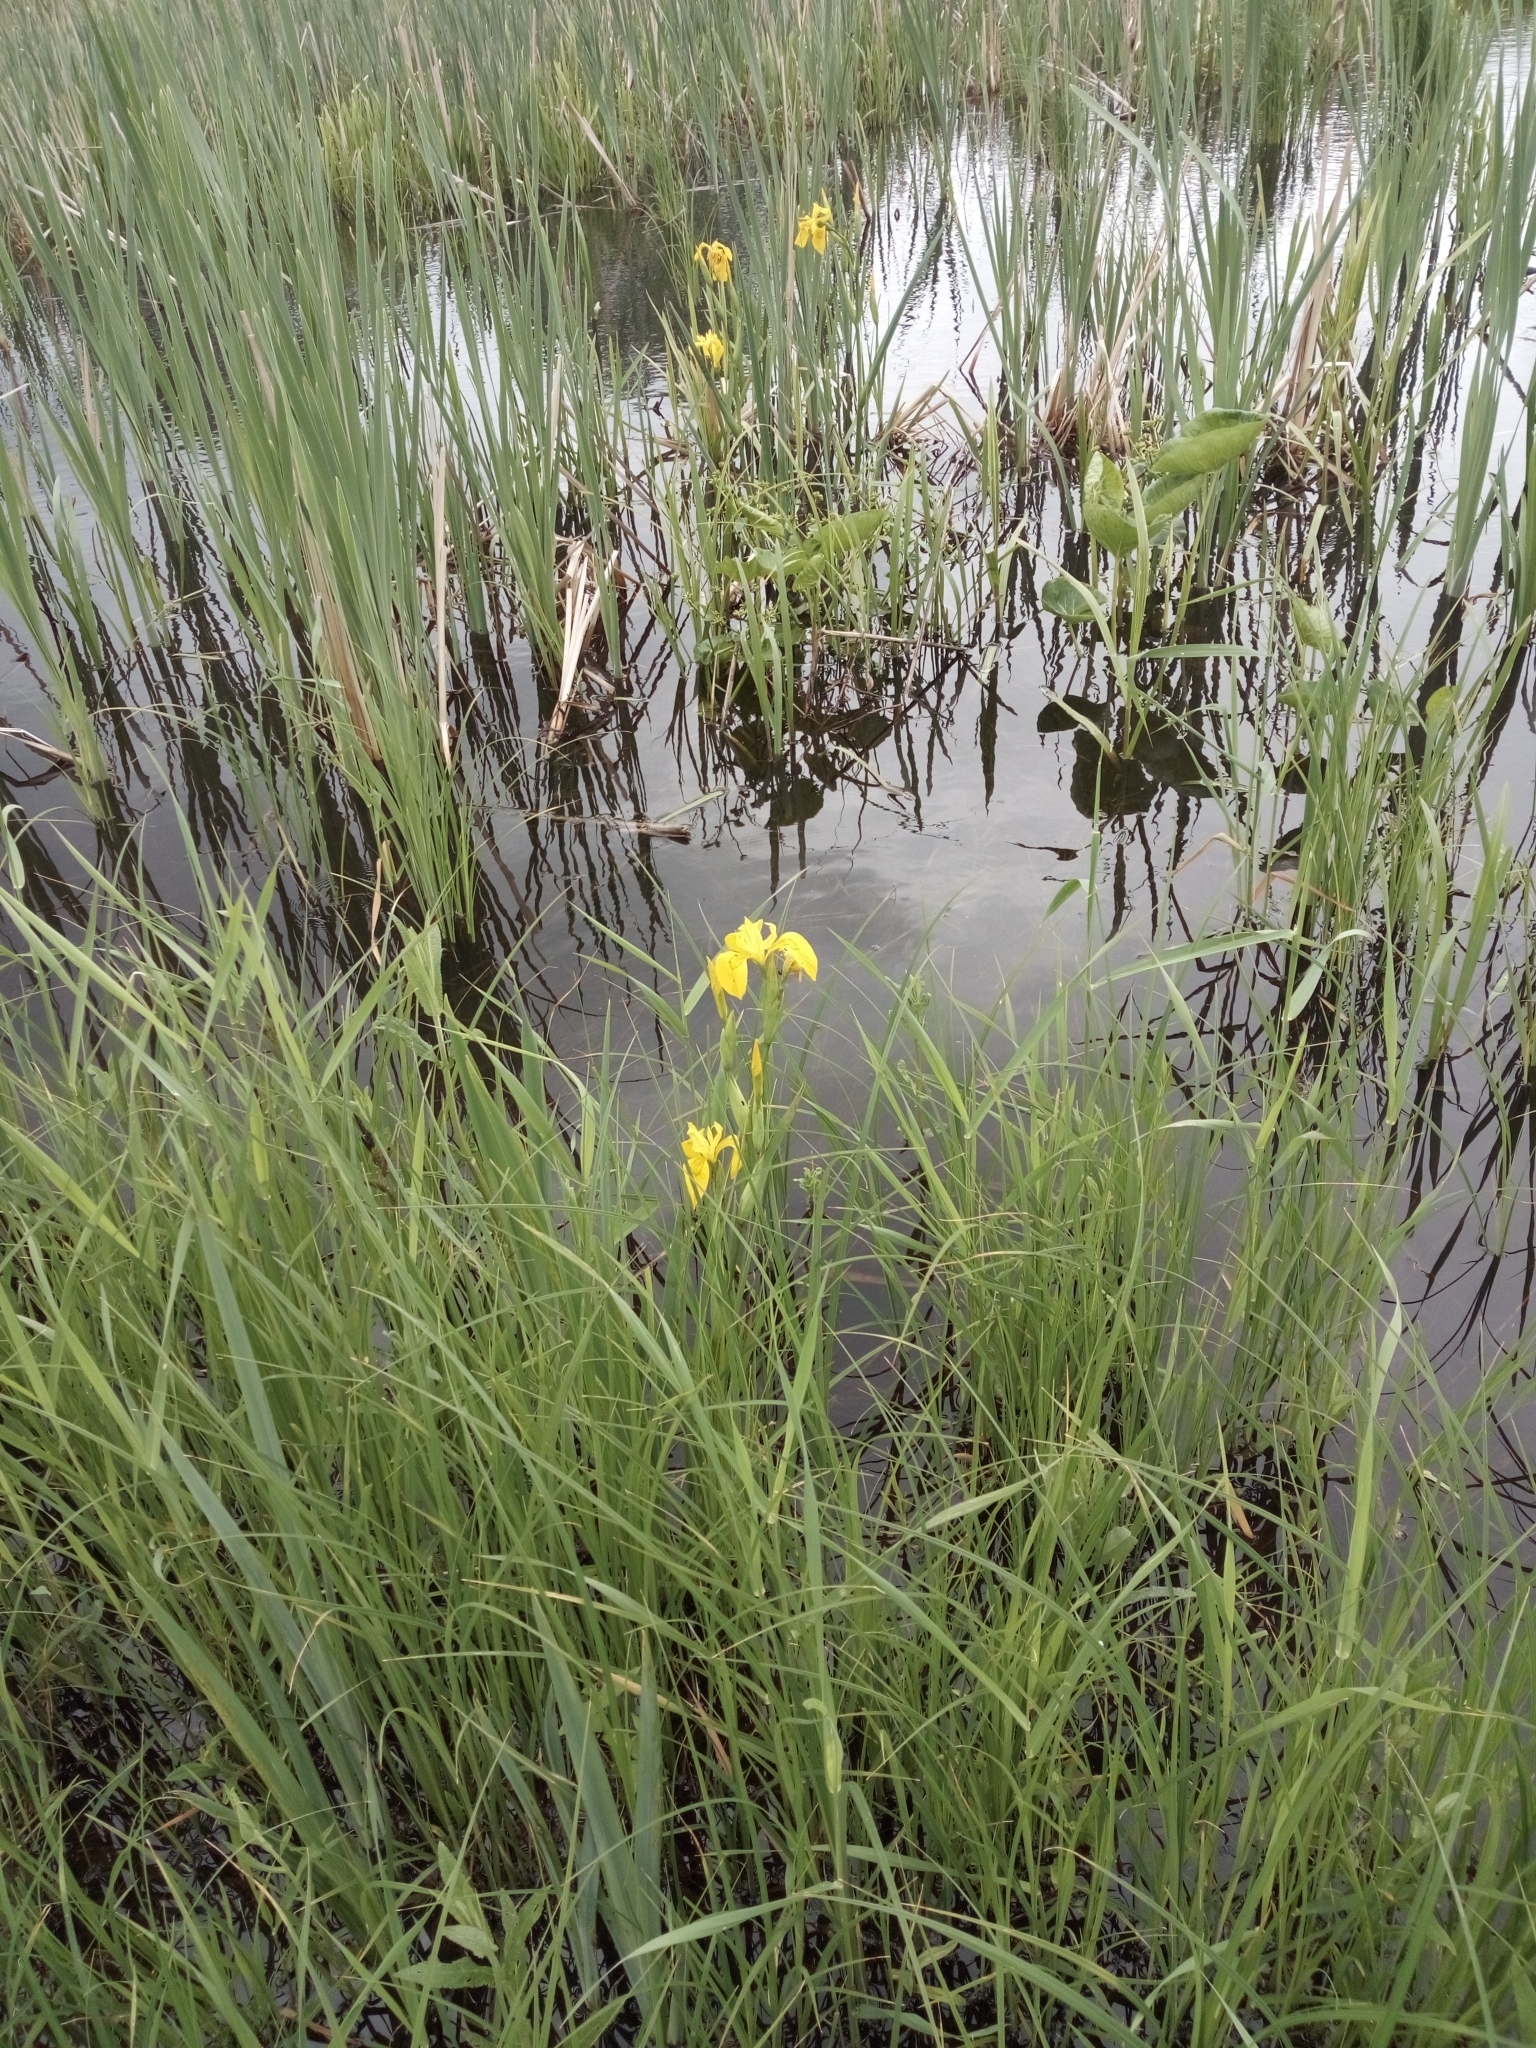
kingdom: Plantae
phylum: Tracheophyta
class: Liliopsida
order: Asparagales
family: Iridaceae
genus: Iris
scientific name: Iris pseudacorus
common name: Yellow flag
